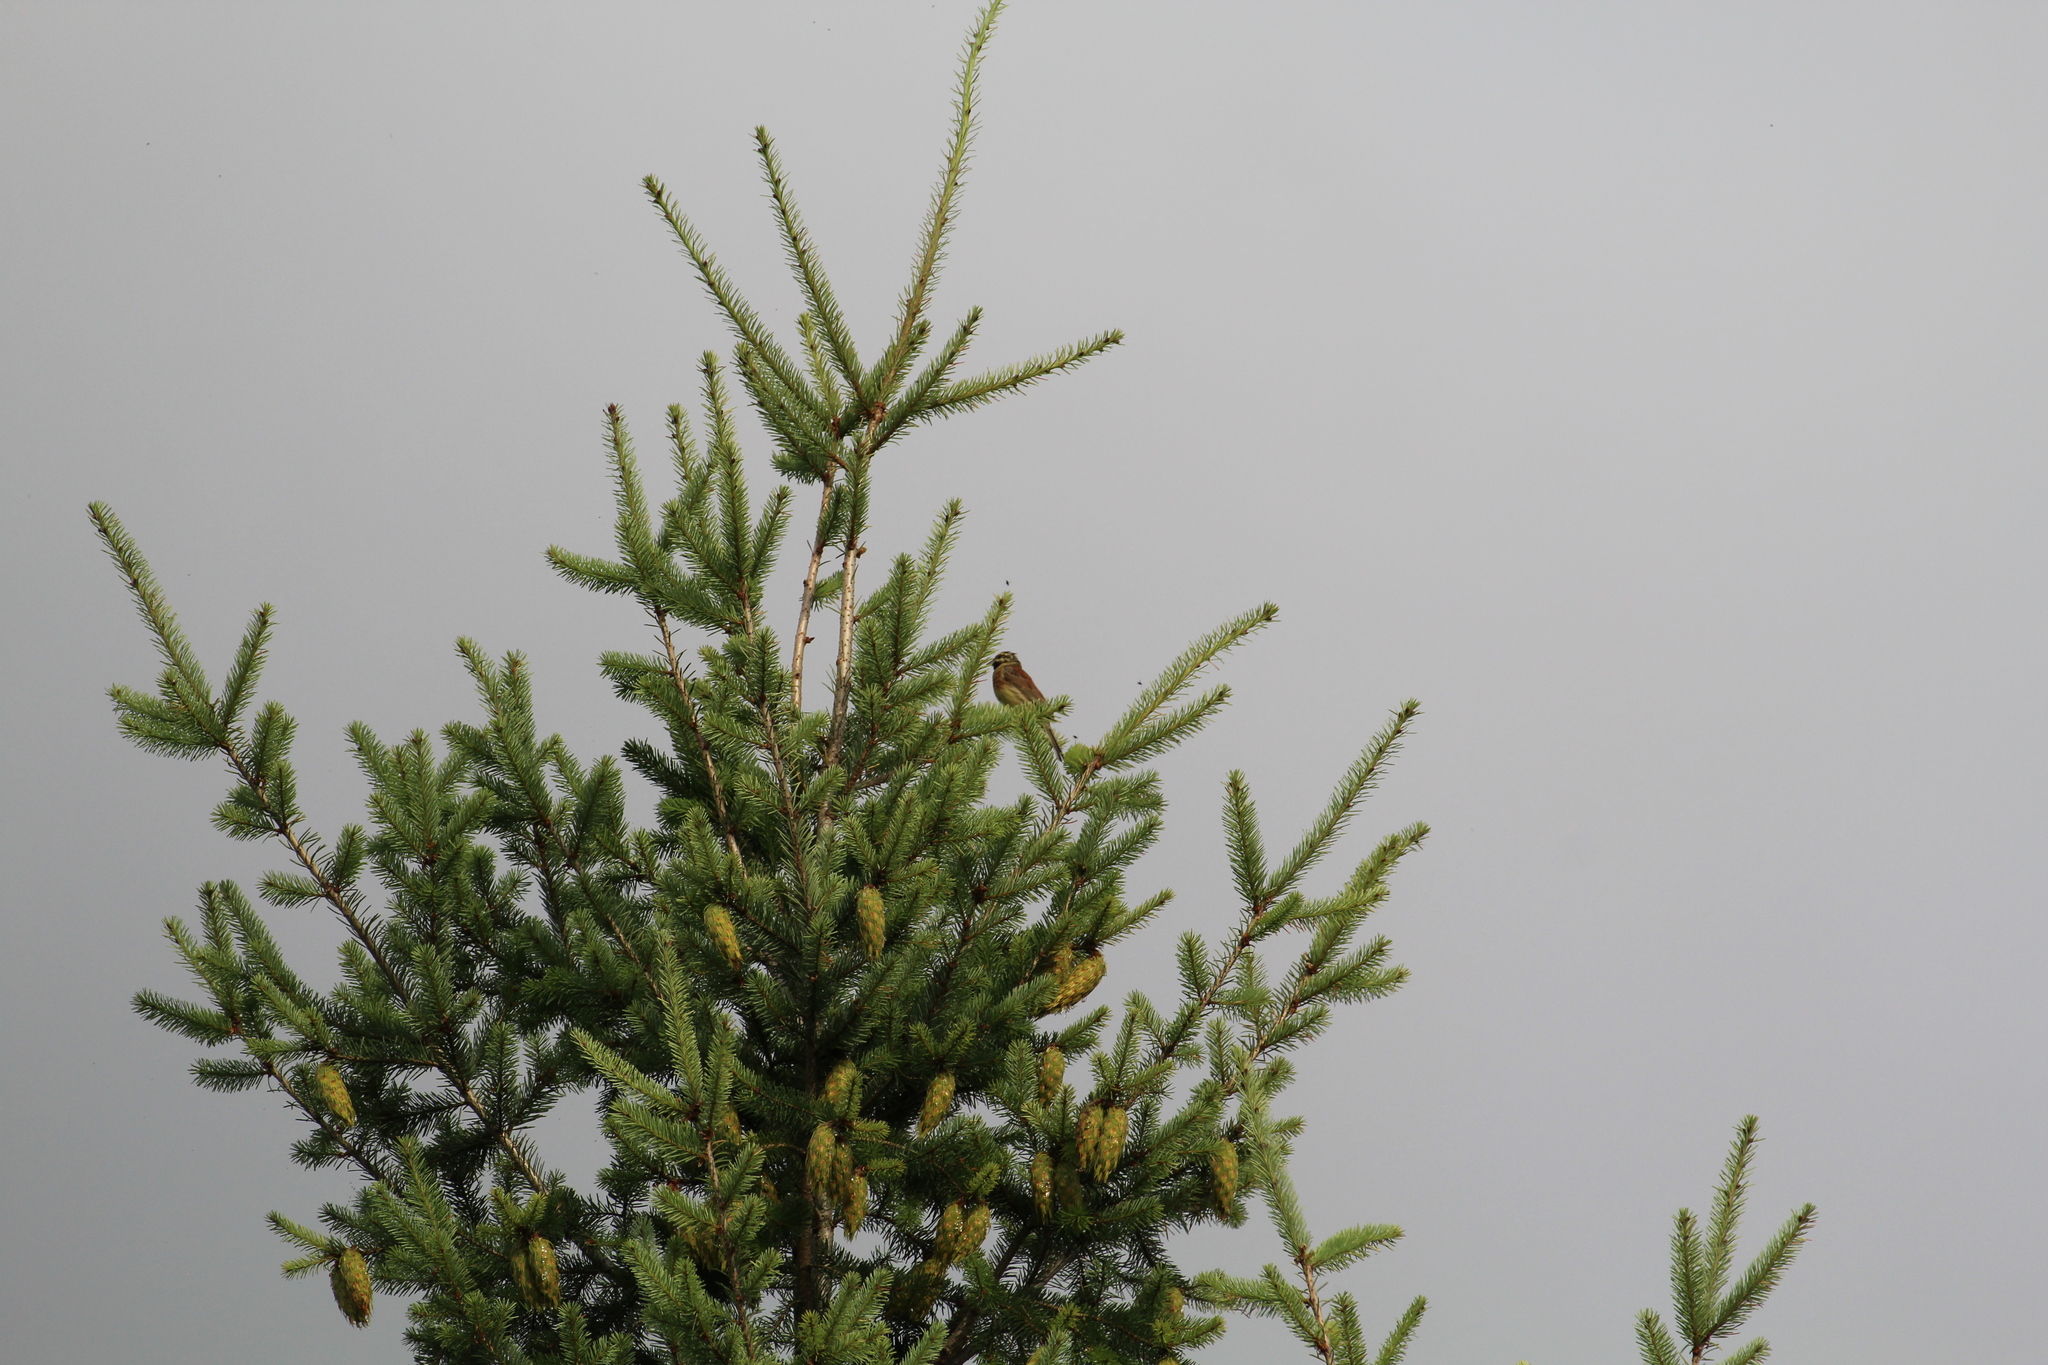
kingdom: Animalia
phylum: Chordata
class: Aves
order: Passeriformes
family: Emberizidae
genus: Emberiza
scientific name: Emberiza cirlus
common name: Cirl bunting
